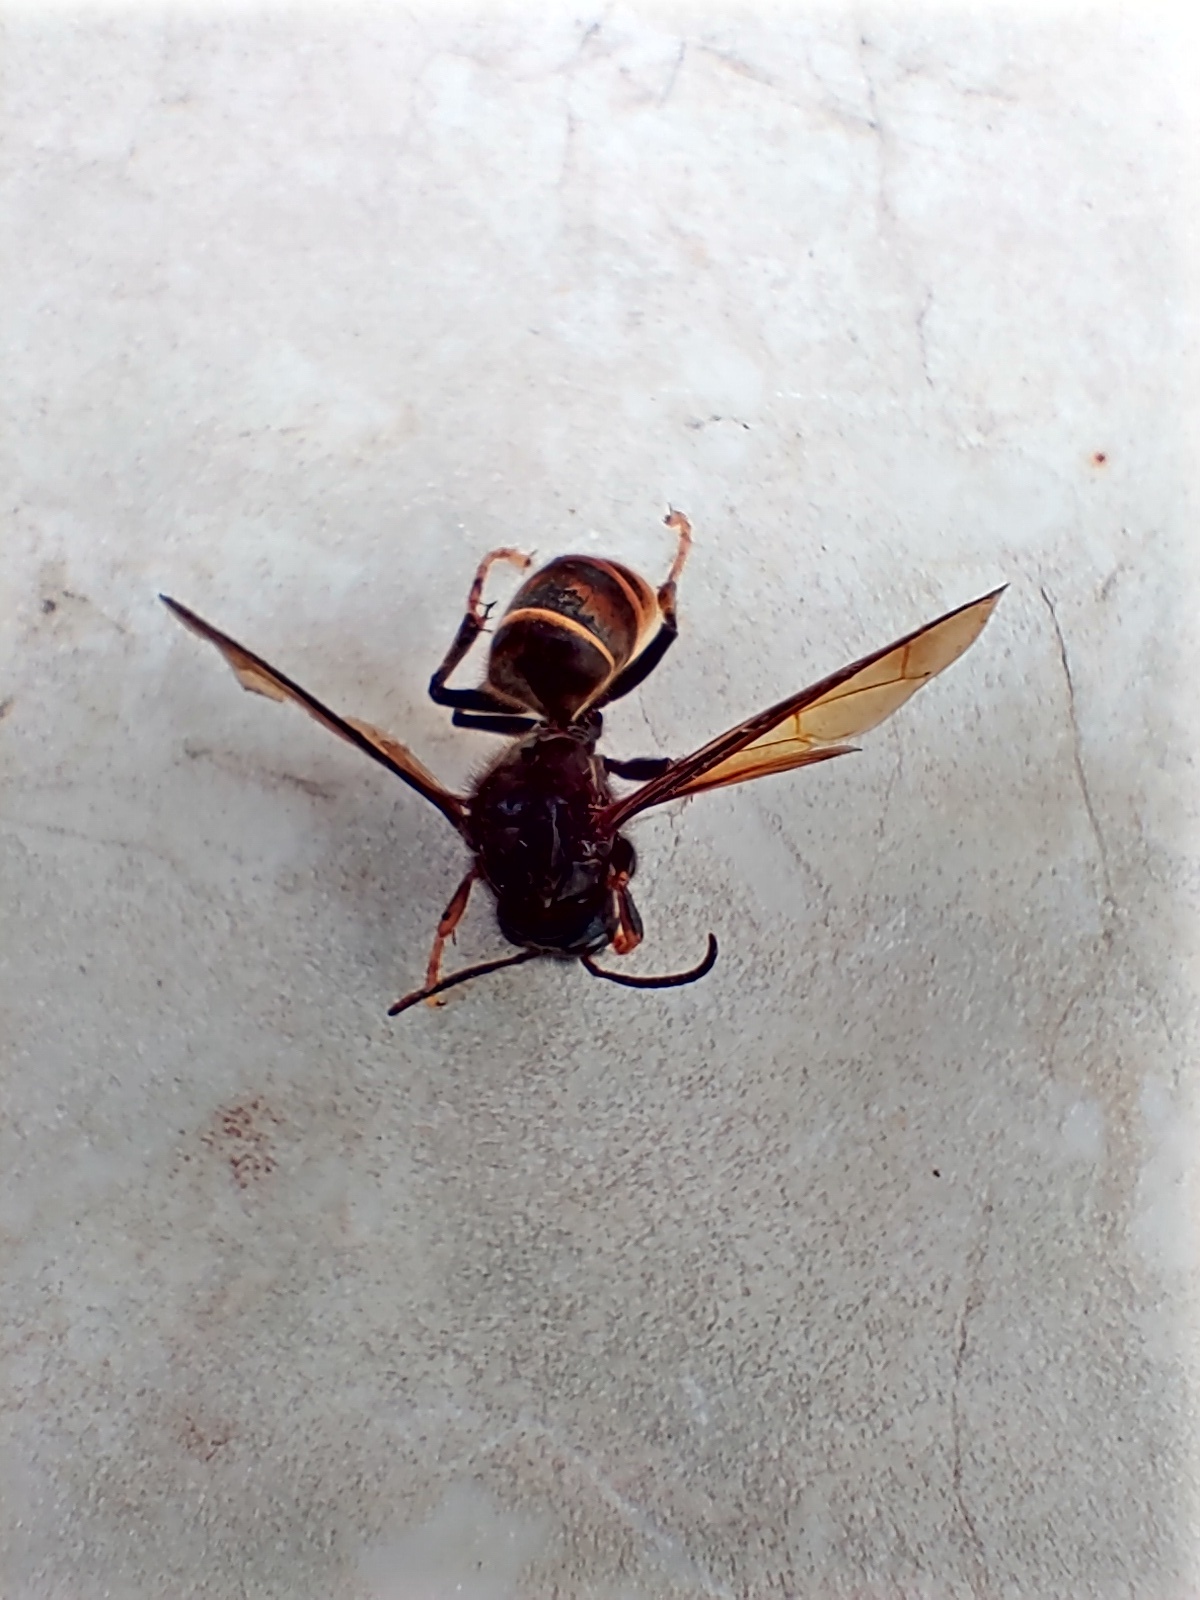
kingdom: Animalia
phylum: Arthropoda
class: Insecta
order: Hymenoptera
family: Vespidae
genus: Vespa
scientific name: Vespa velutina
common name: Asian hornet
